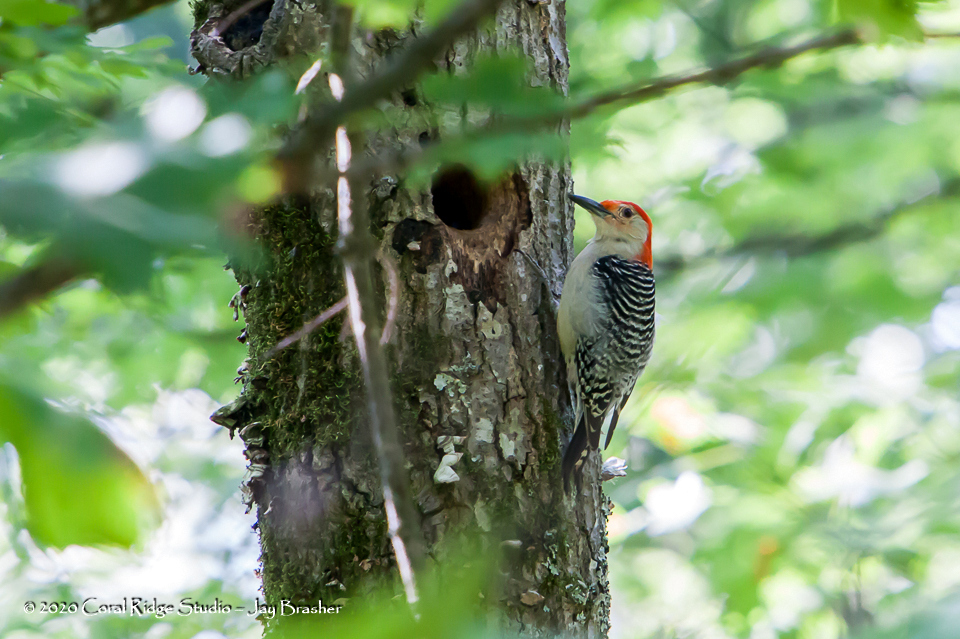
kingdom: Animalia
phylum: Chordata
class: Aves
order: Piciformes
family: Picidae
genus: Melanerpes
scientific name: Melanerpes carolinus
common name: Red-bellied woodpecker
